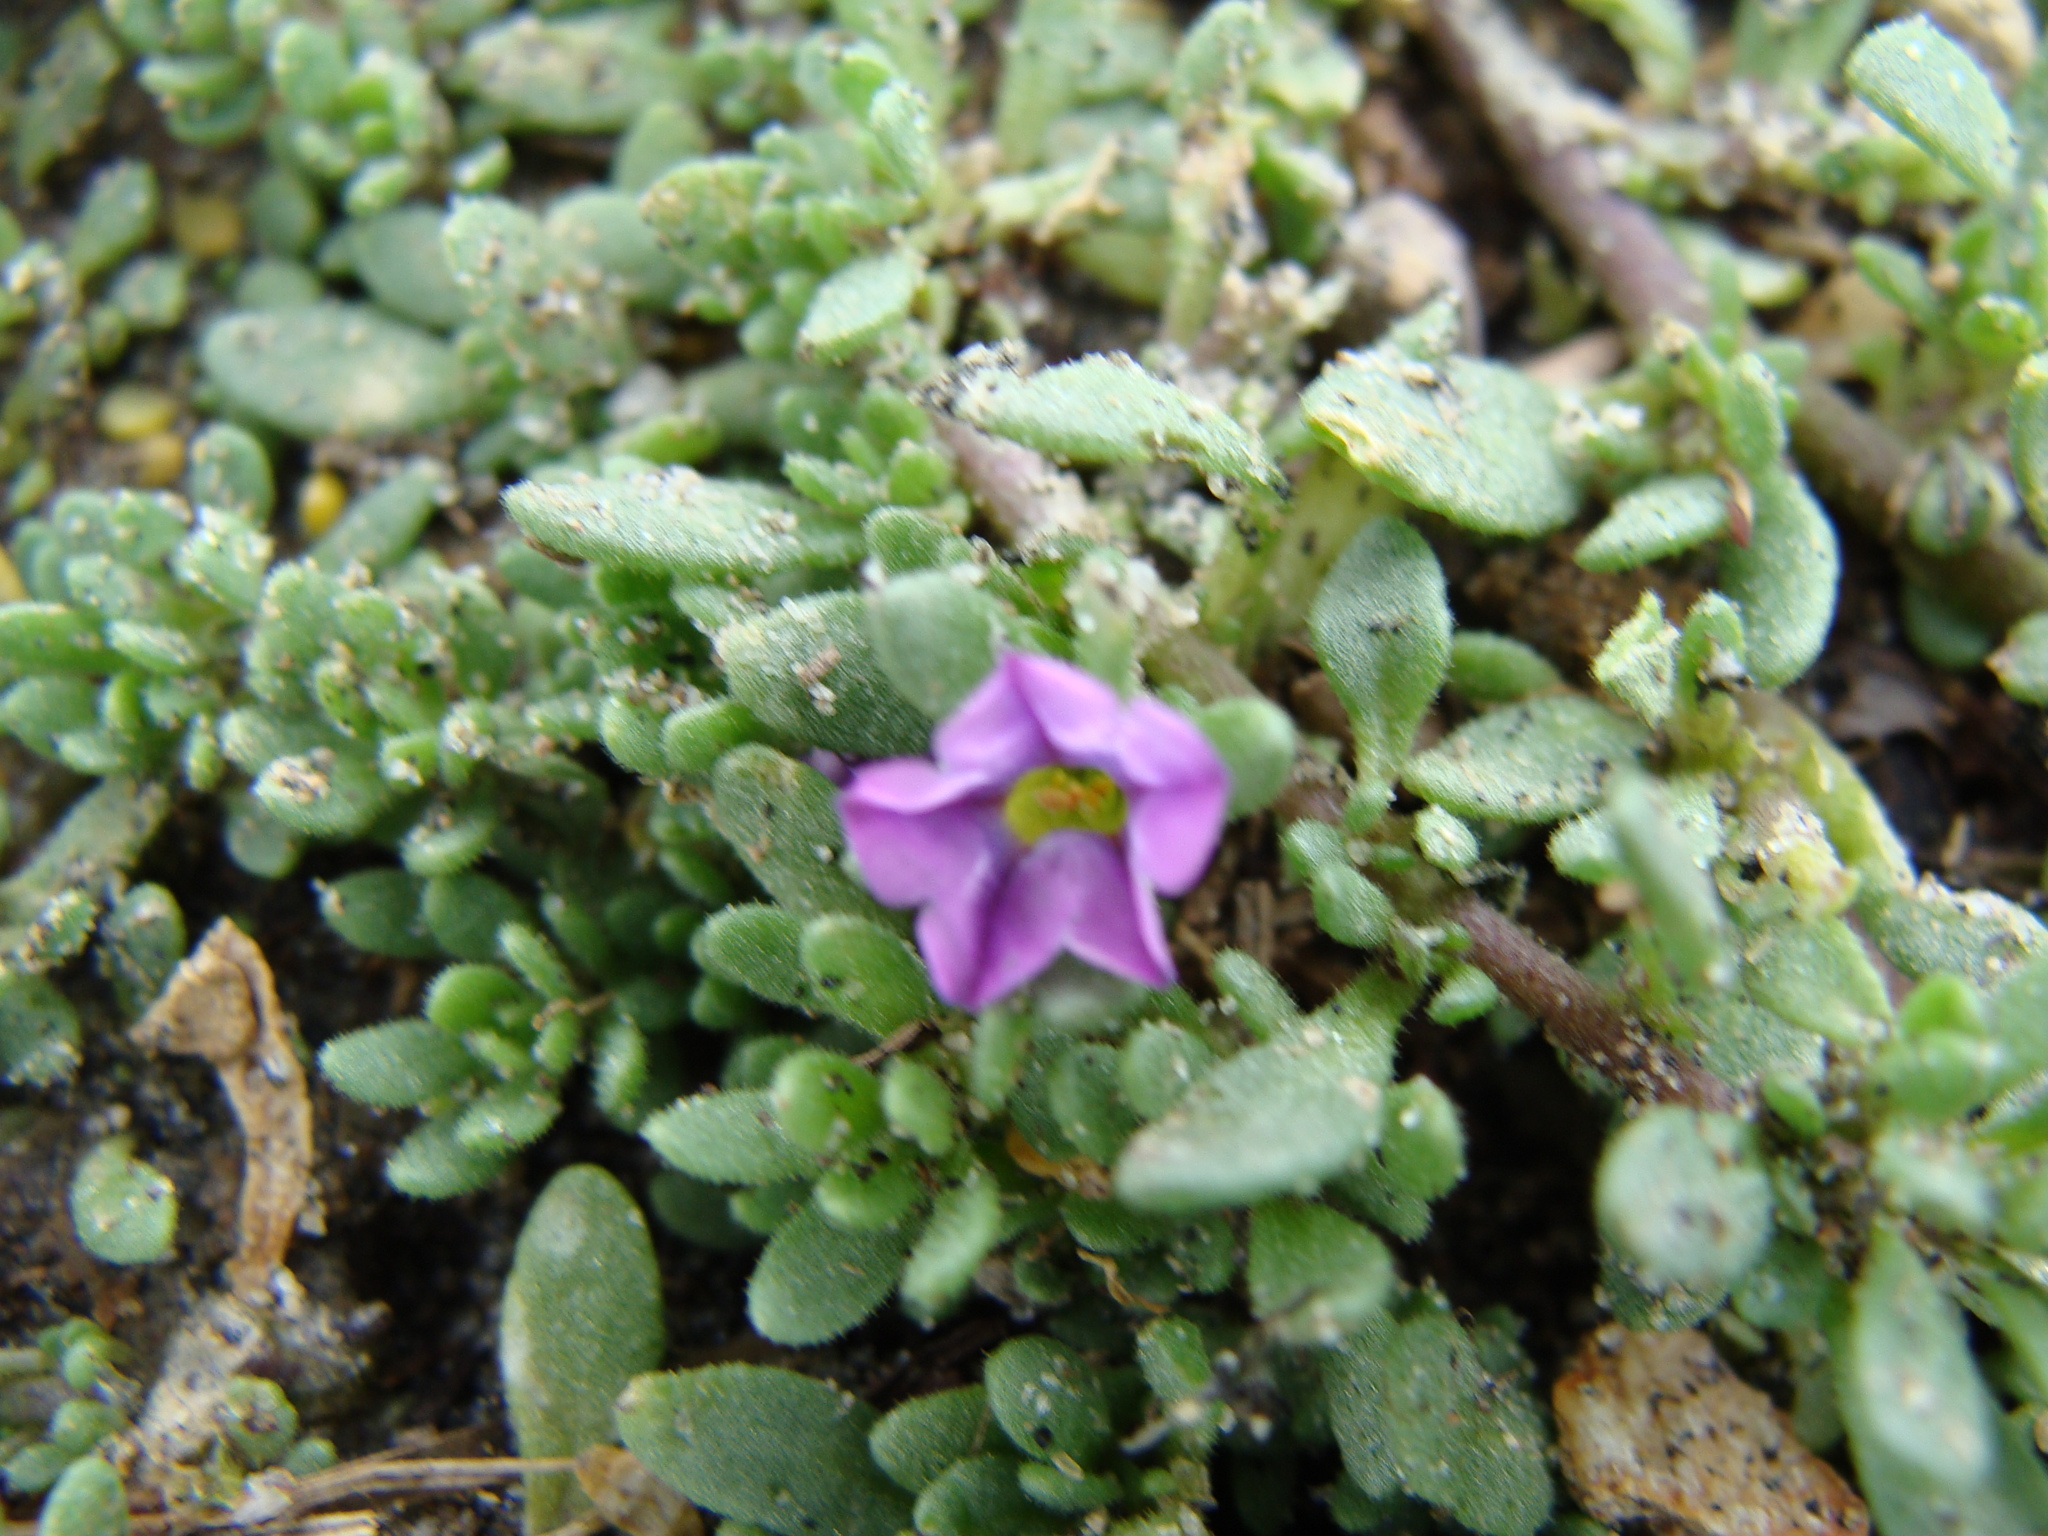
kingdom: Plantae
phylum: Tracheophyta
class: Magnoliopsida
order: Solanales
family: Solanaceae
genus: Calibrachoa
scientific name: Calibrachoa parviflora
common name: Seaside petunia
